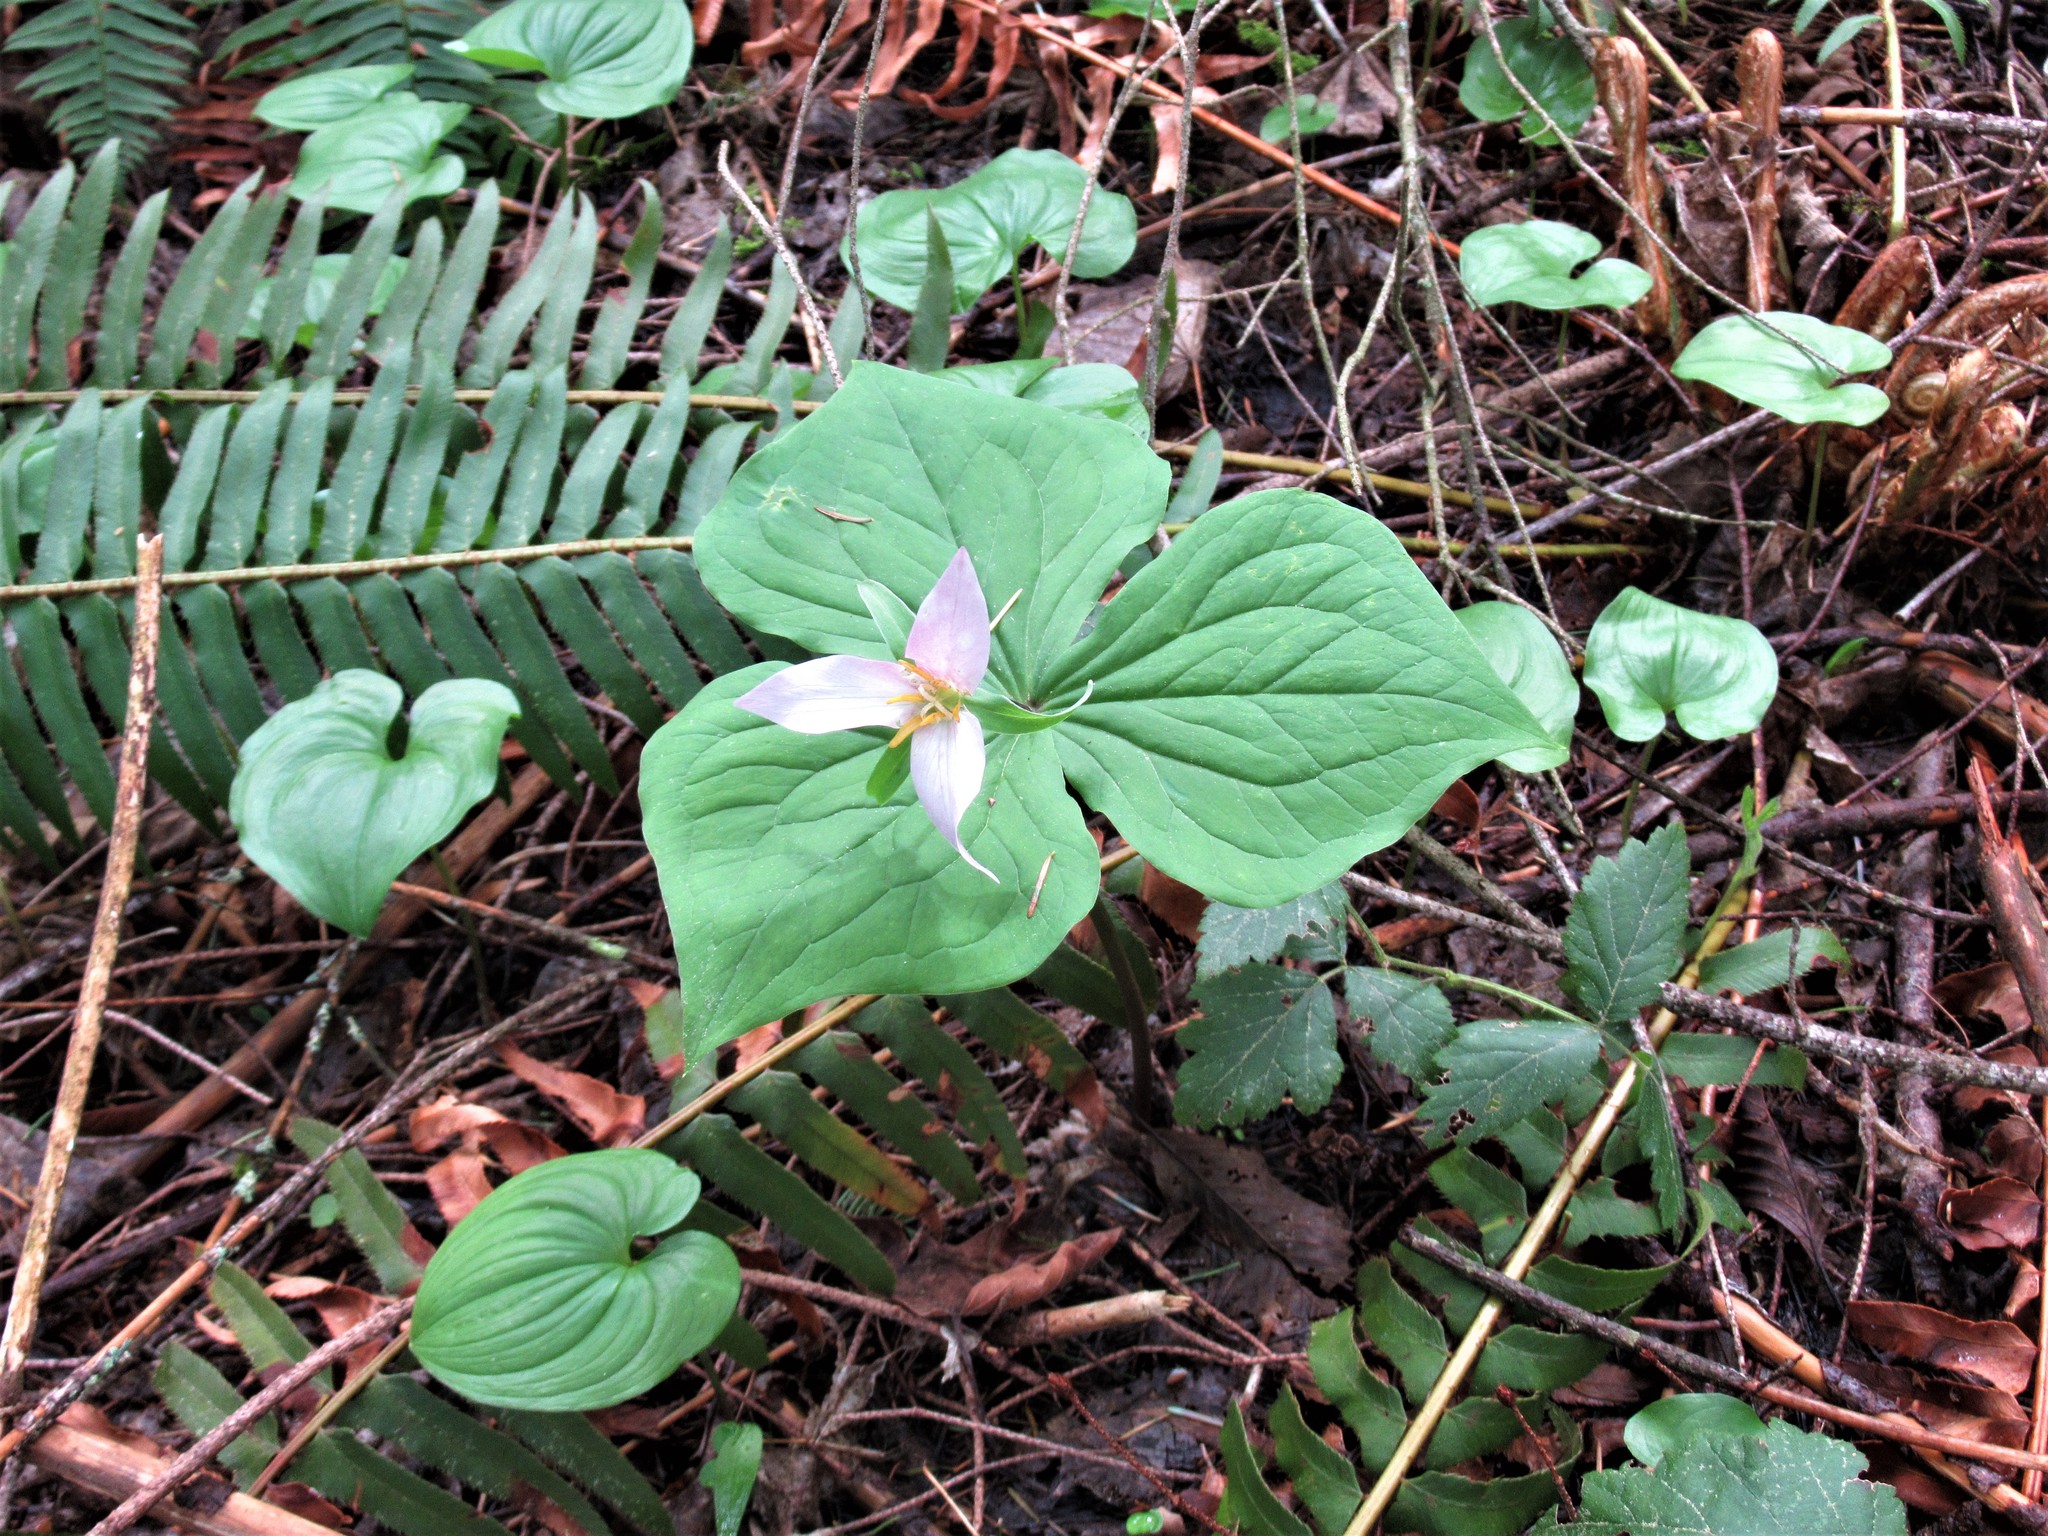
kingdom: Plantae
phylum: Tracheophyta
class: Liliopsida
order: Liliales
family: Melanthiaceae
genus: Trillium
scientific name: Trillium ovatum
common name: Pacific trillium
